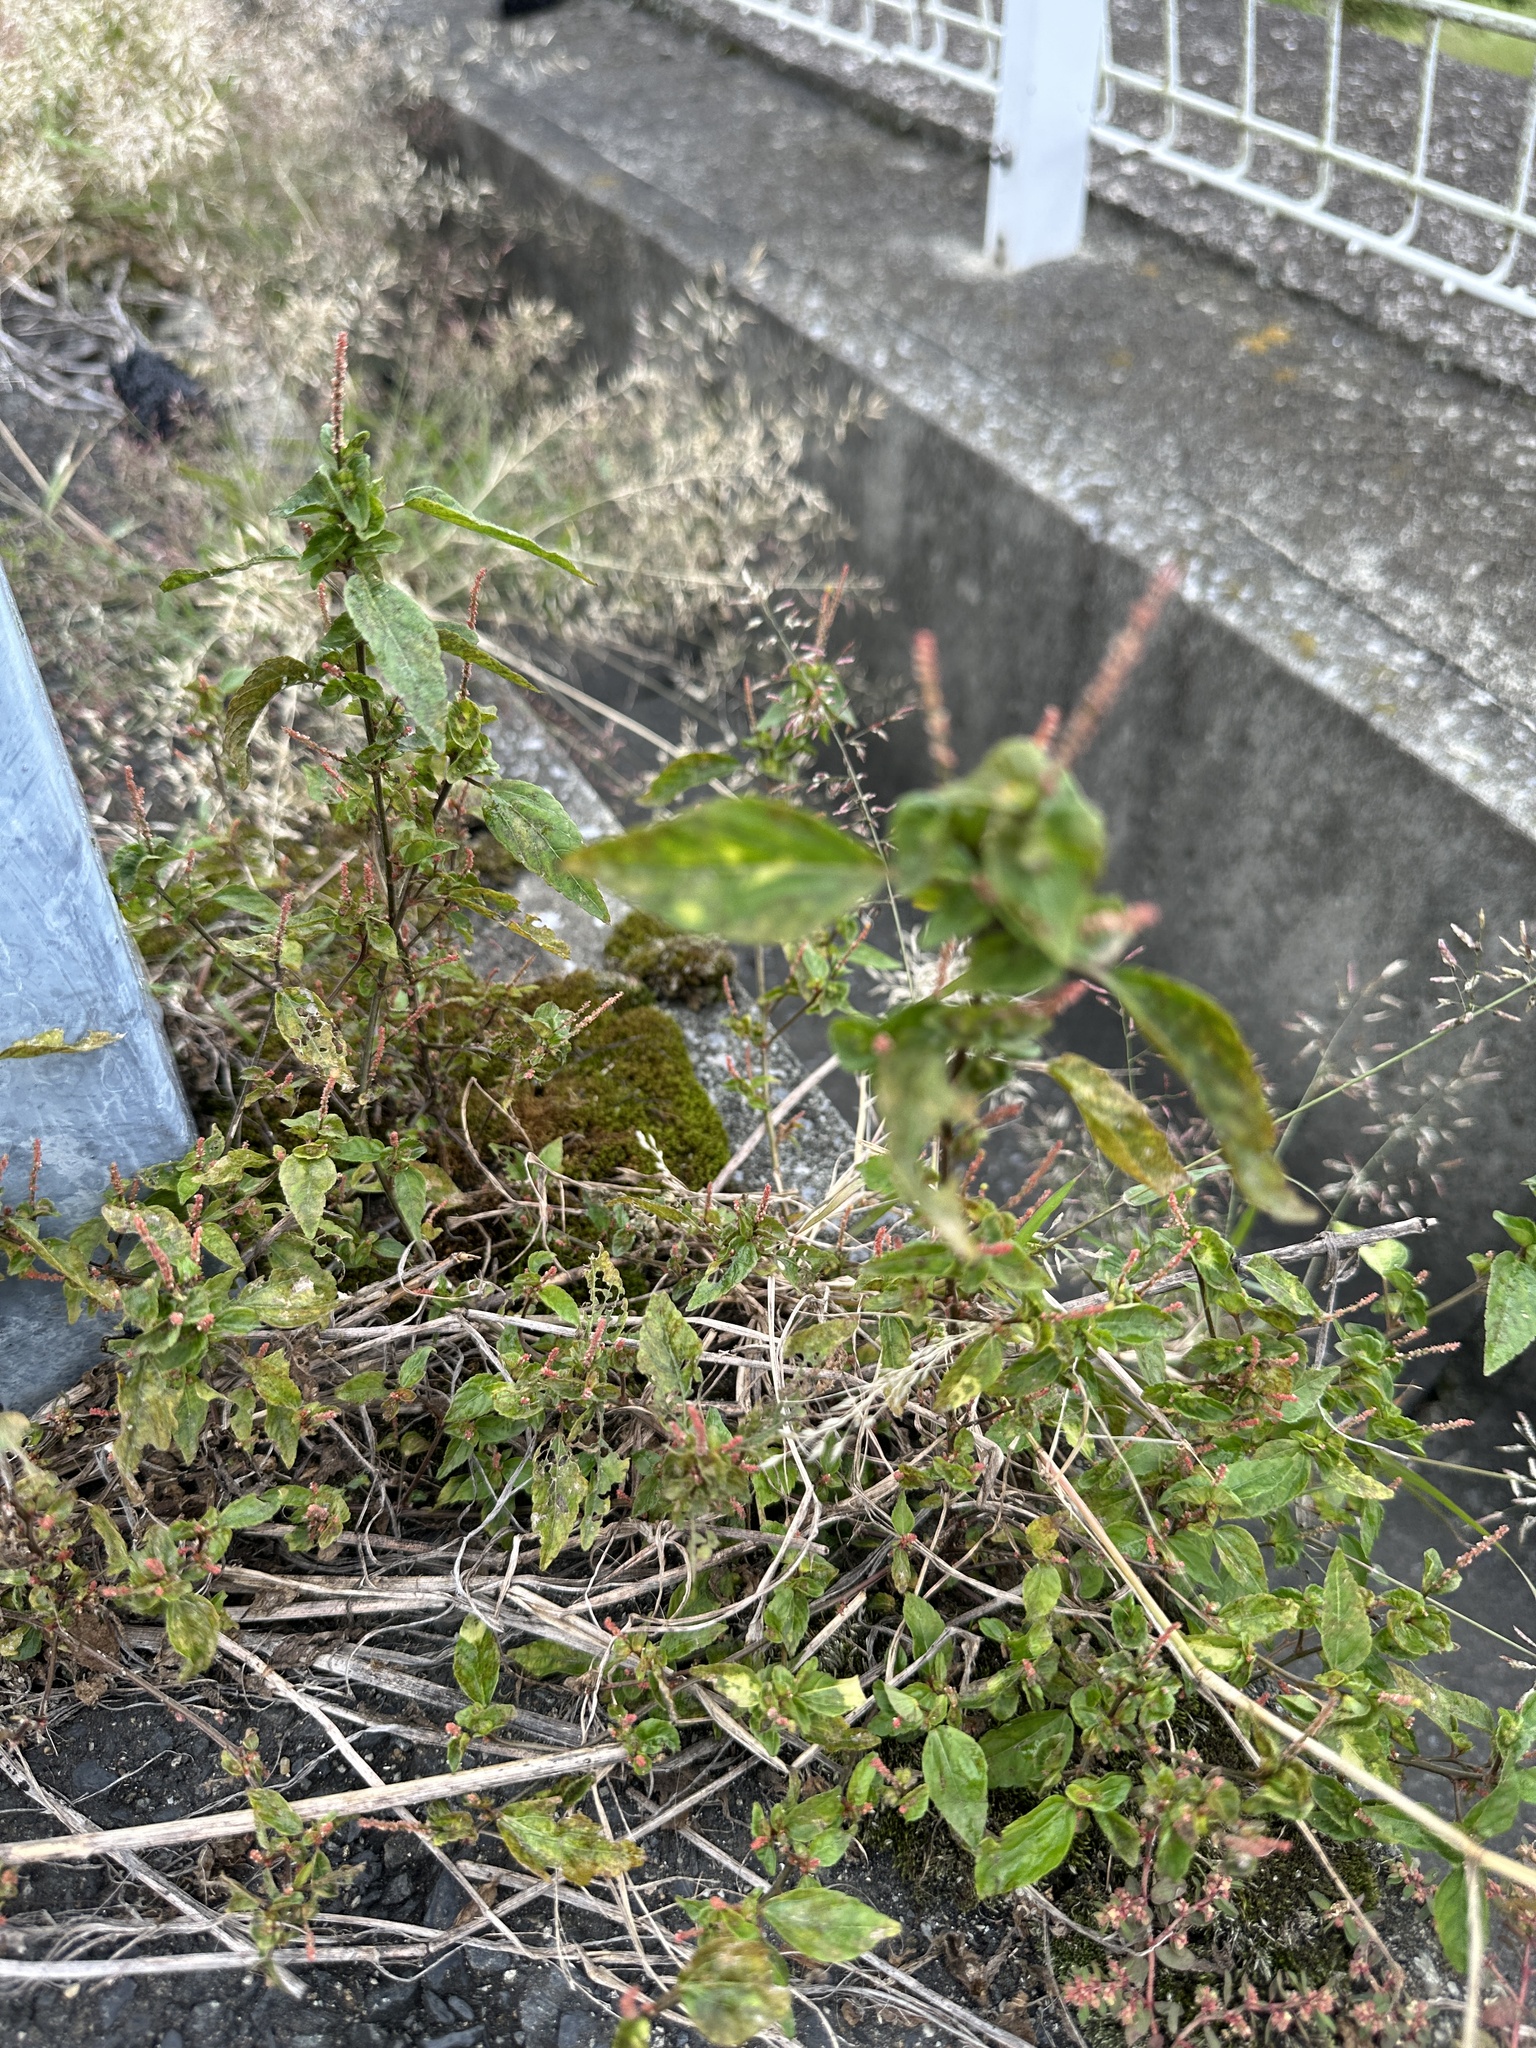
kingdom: Plantae
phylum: Tracheophyta
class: Magnoliopsida
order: Malpighiales
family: Euphorbiaceae
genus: Acalypha
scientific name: Acalypha australis
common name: Asian copperleaf
